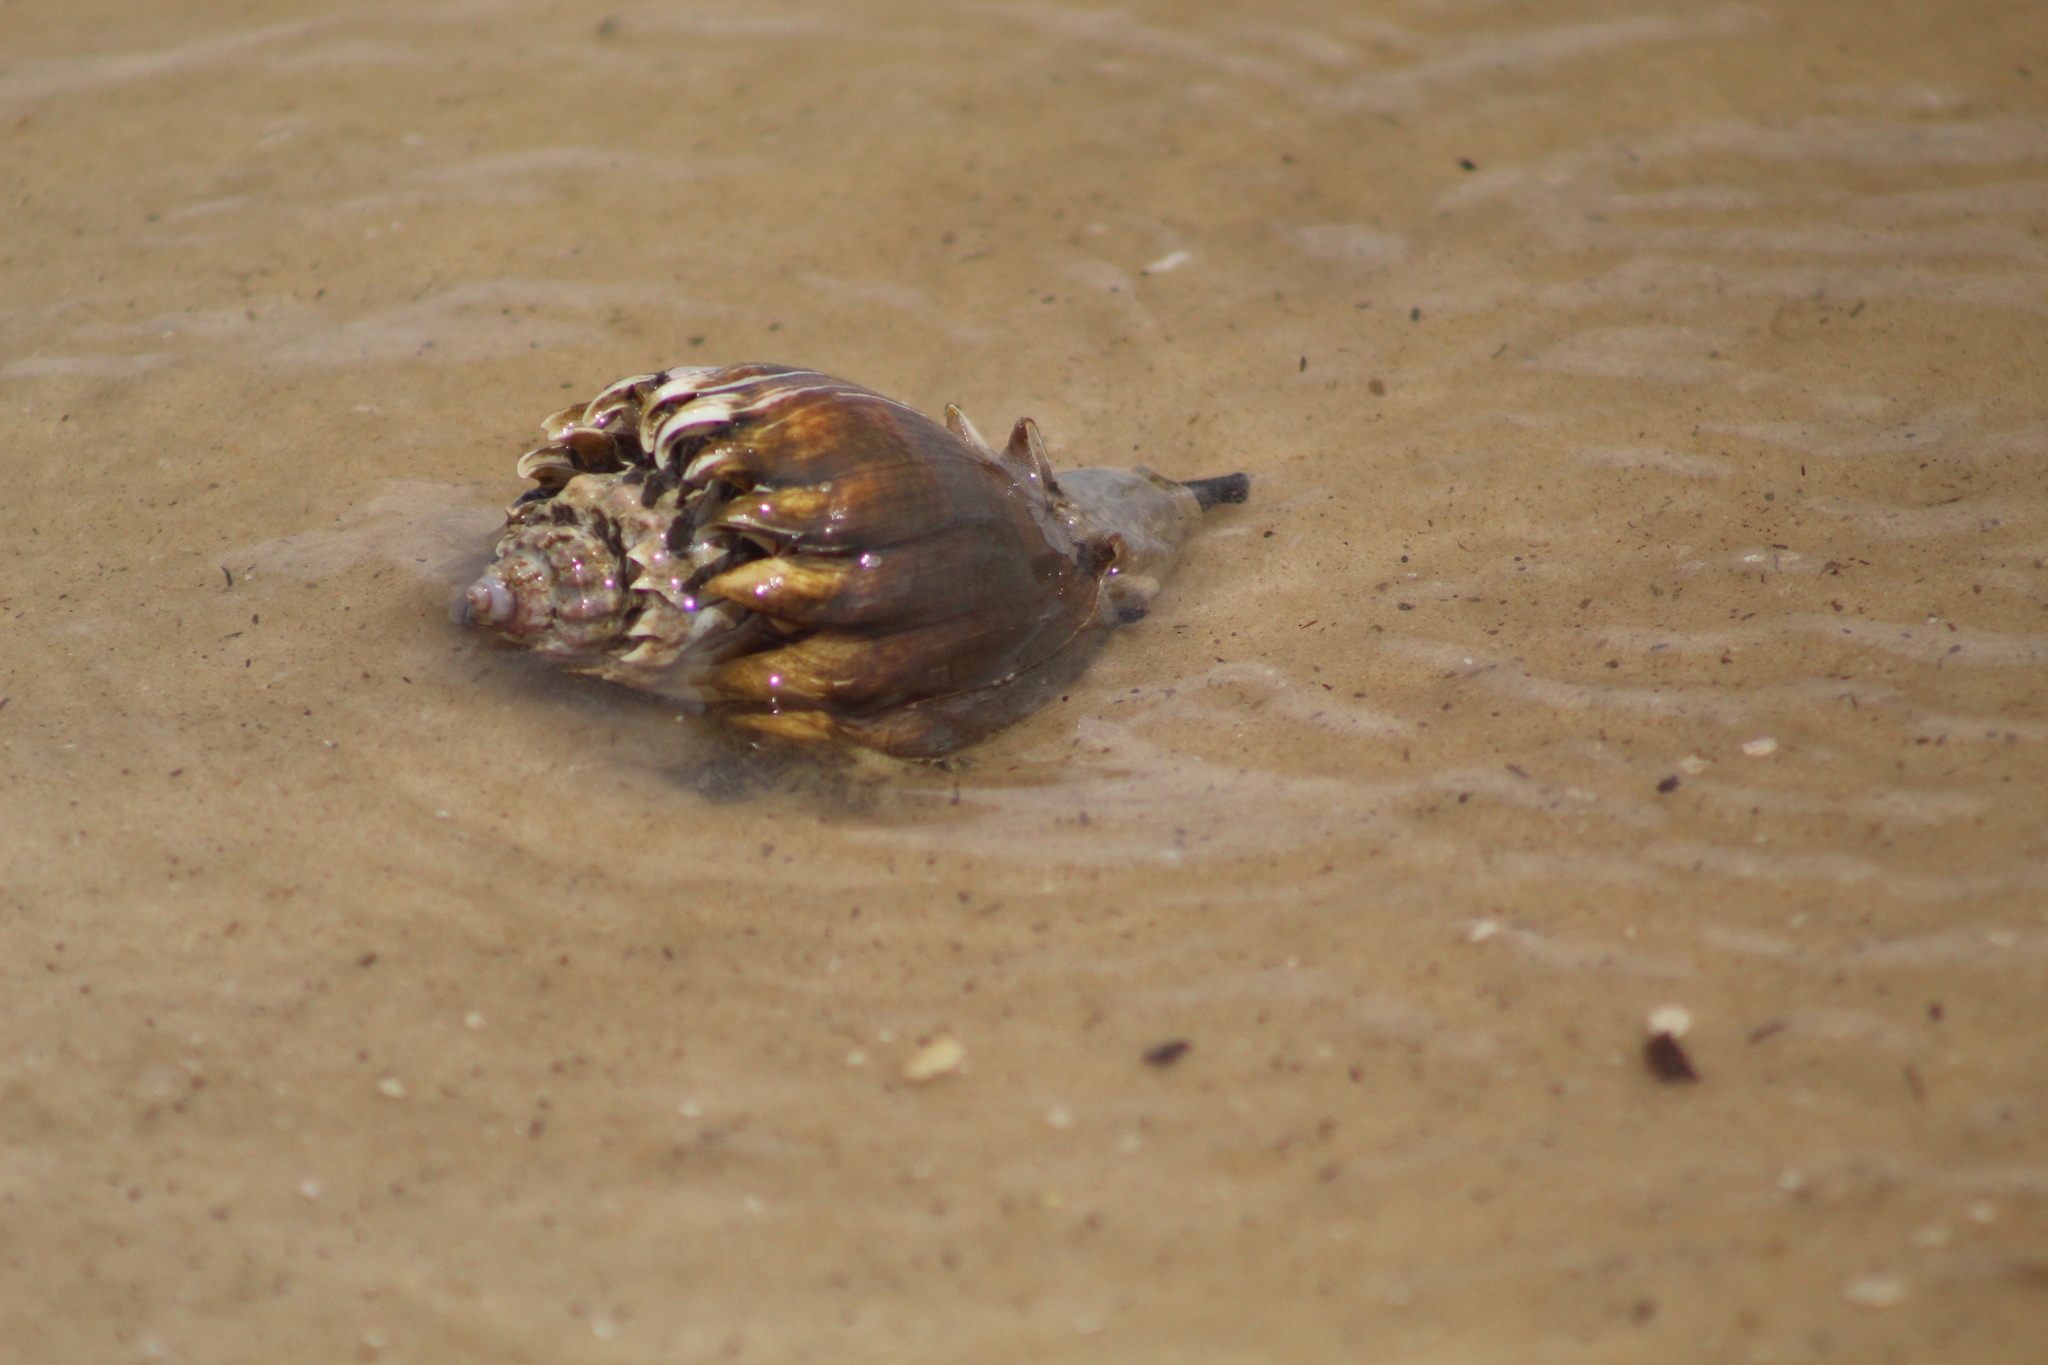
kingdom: Animalia
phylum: Mollusca
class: Gastropoda
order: Neogastropoda
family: Melongenidae
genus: Melongena
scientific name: Melongena corona
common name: American crown conch
